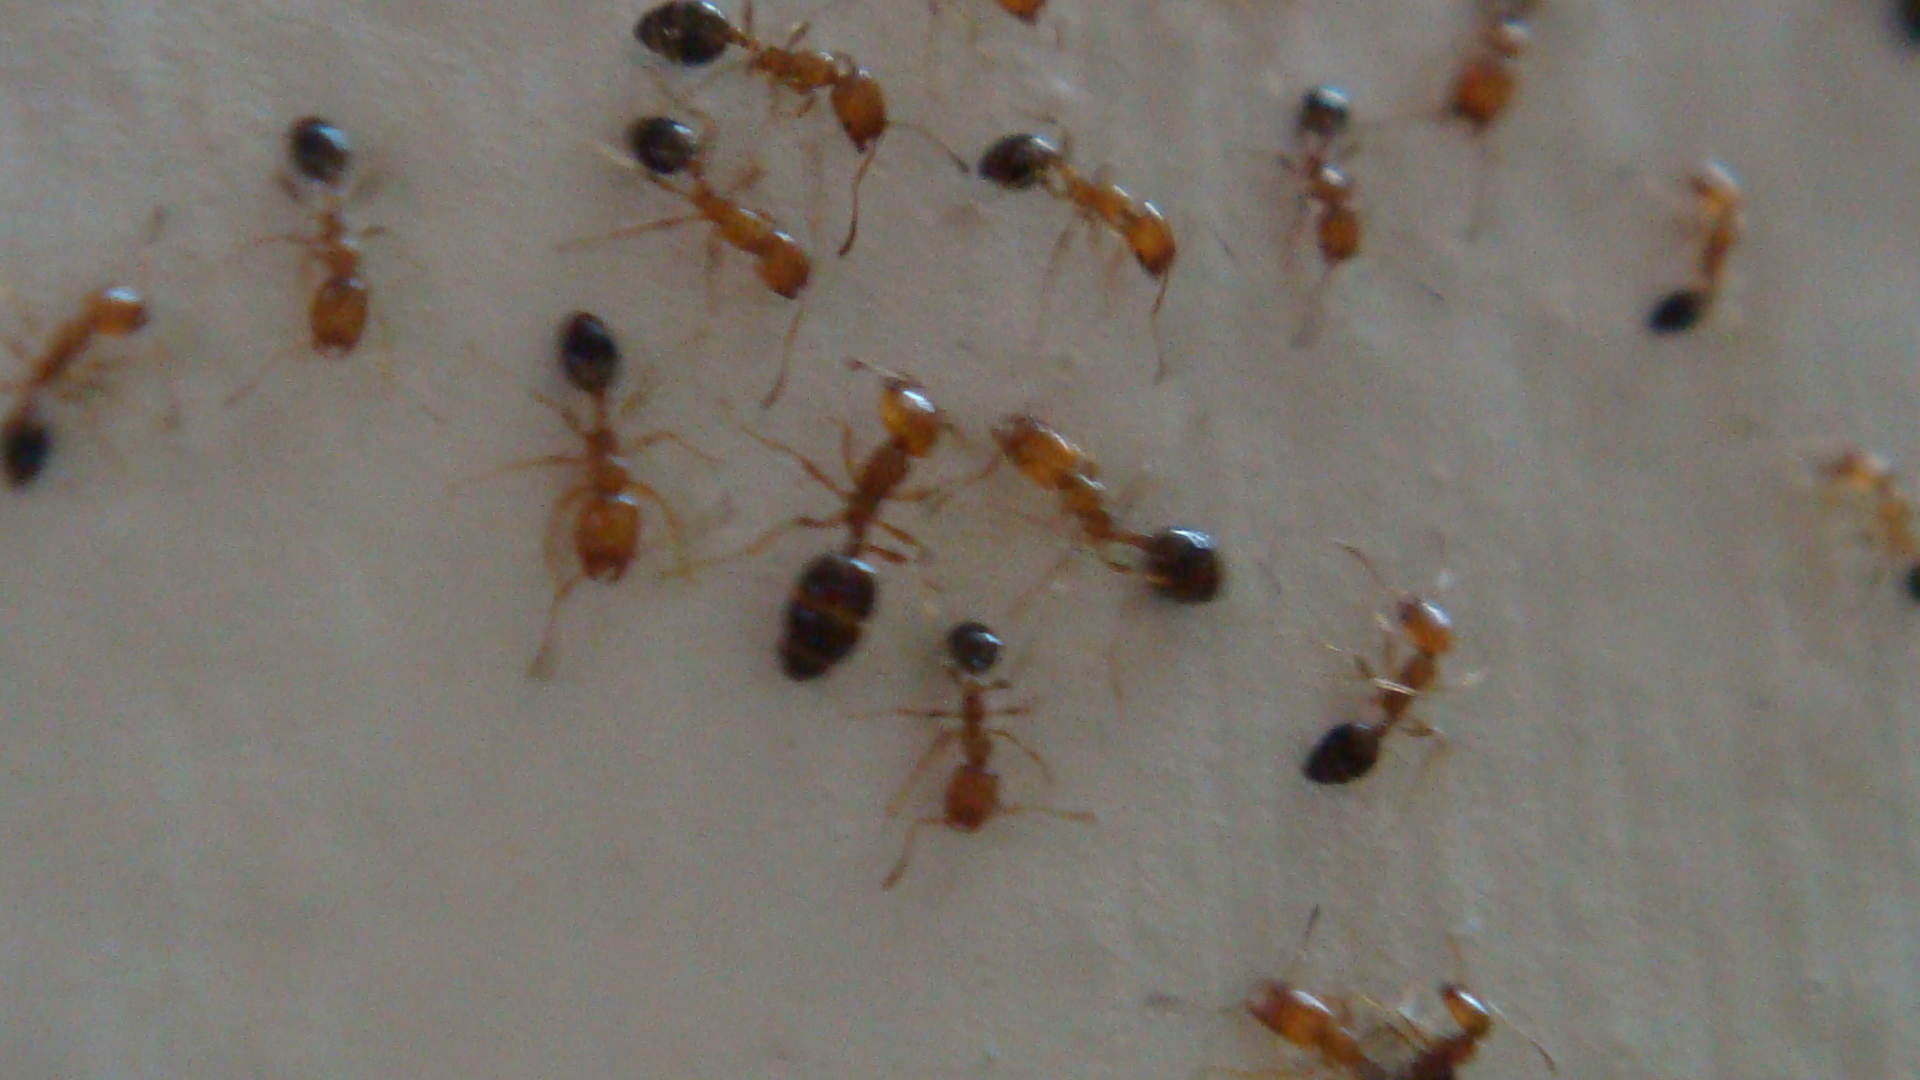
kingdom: Animalia
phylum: Arthropoda
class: Insecta
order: Hymenoptera
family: Formicidae
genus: Monomorium
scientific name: Monomorium destructor
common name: Destructive trailing ant
